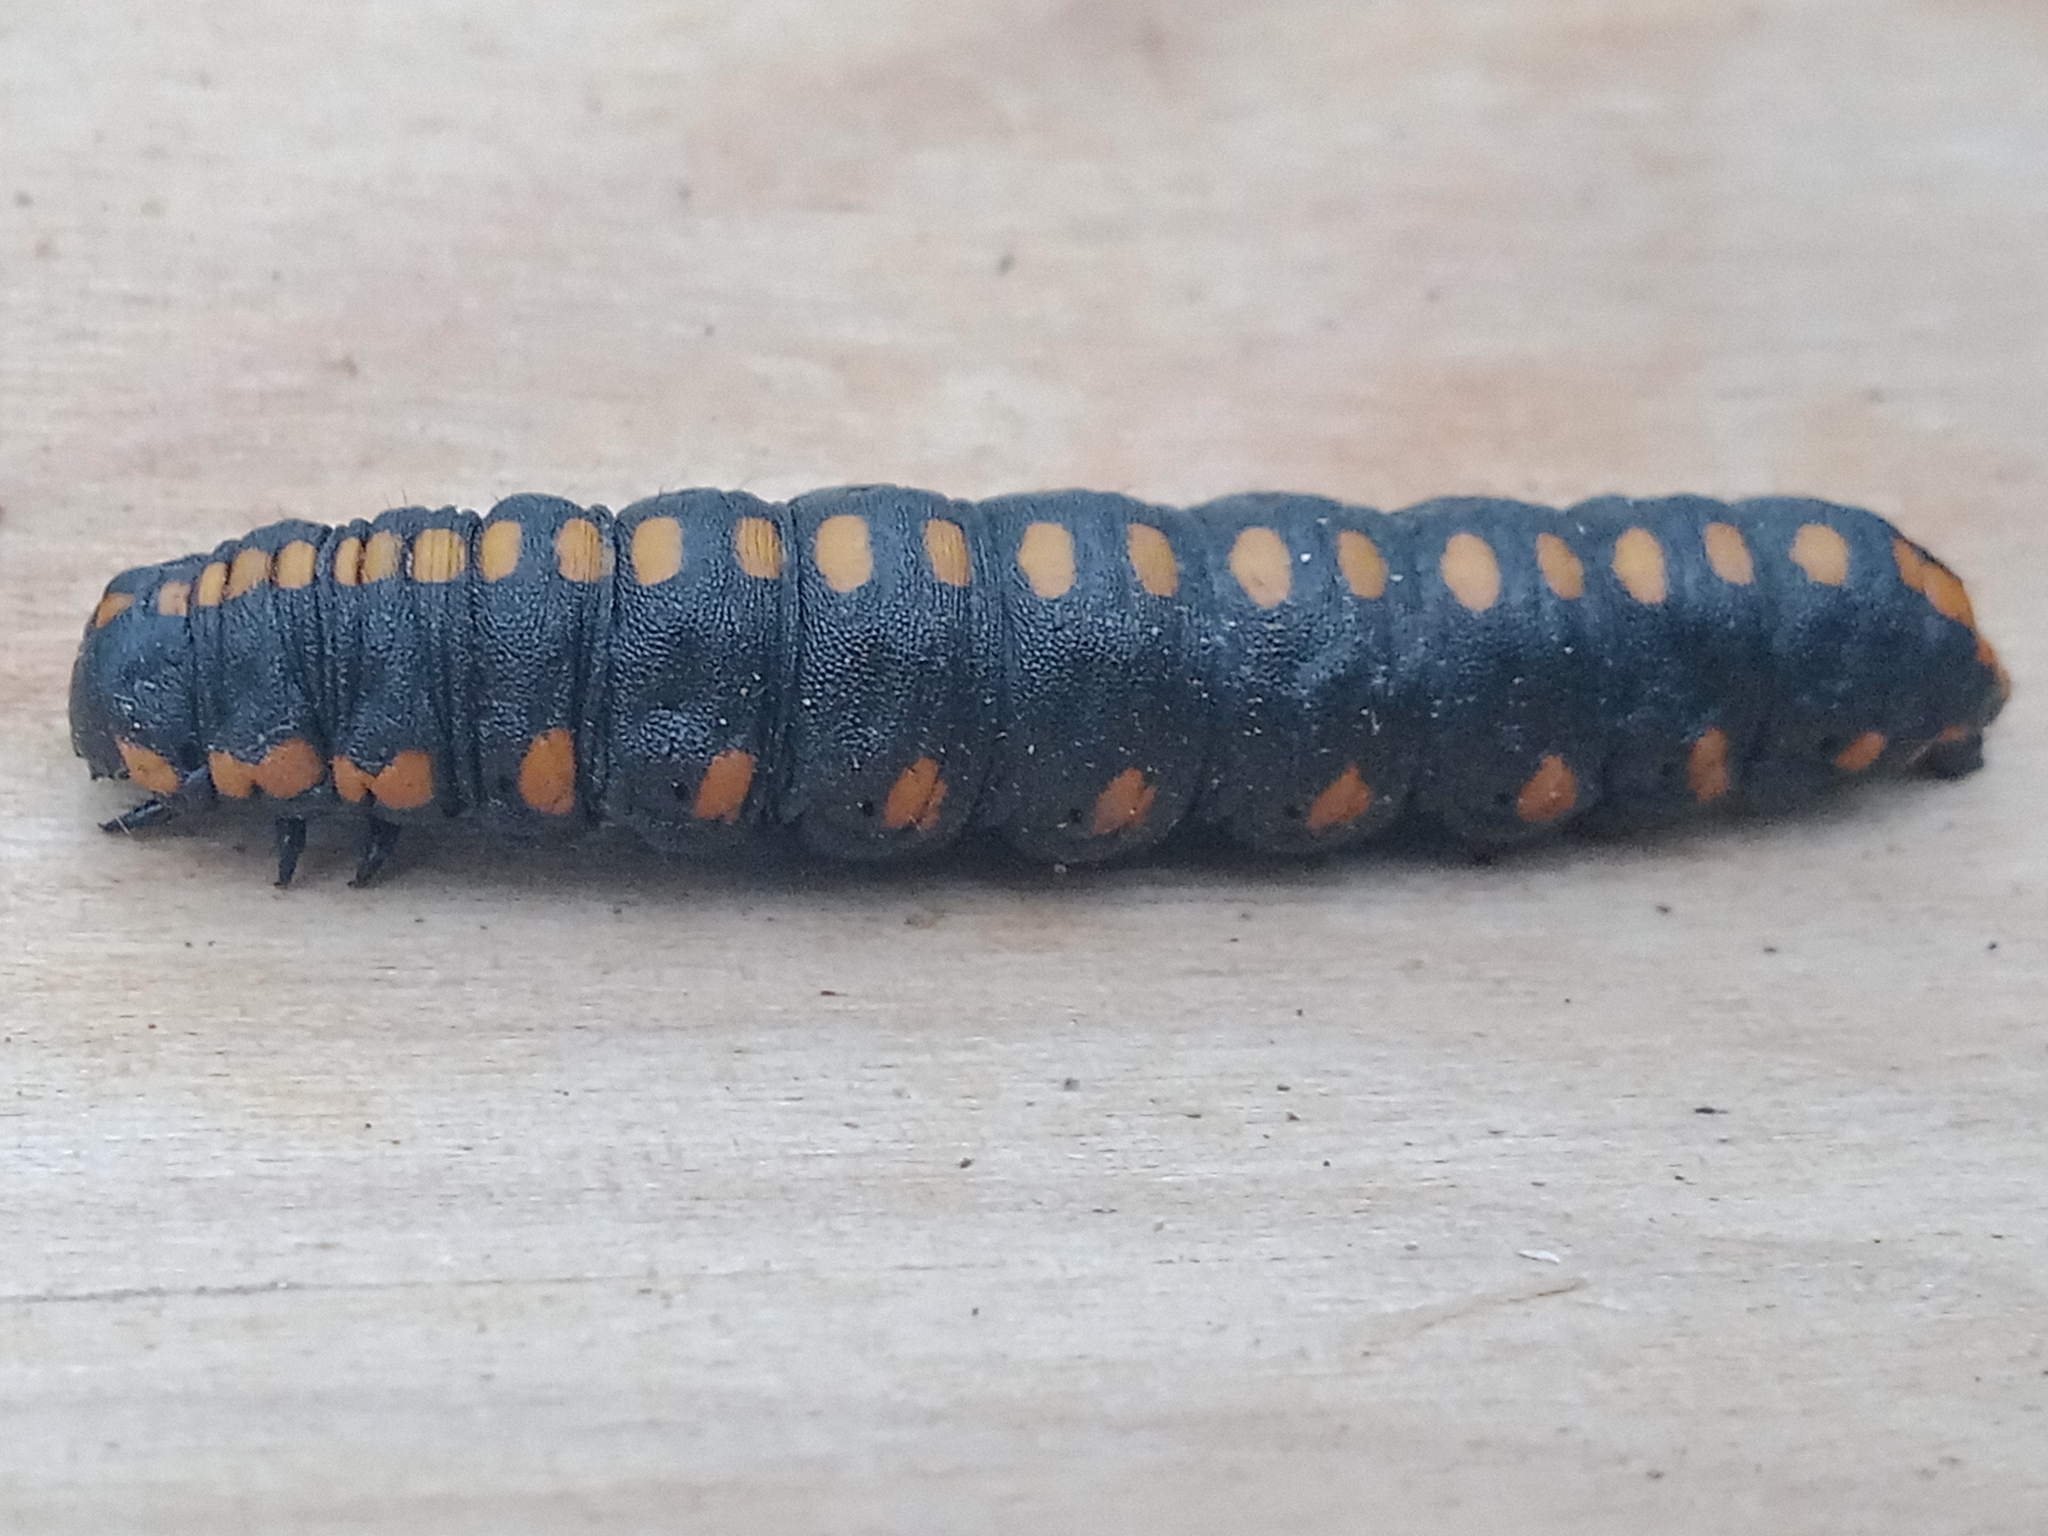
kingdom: Animalia
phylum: Arthropoda
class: Insecta
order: Lepidoptera
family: Noctuidae
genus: Cucullia
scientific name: Cucullia lucifuga
